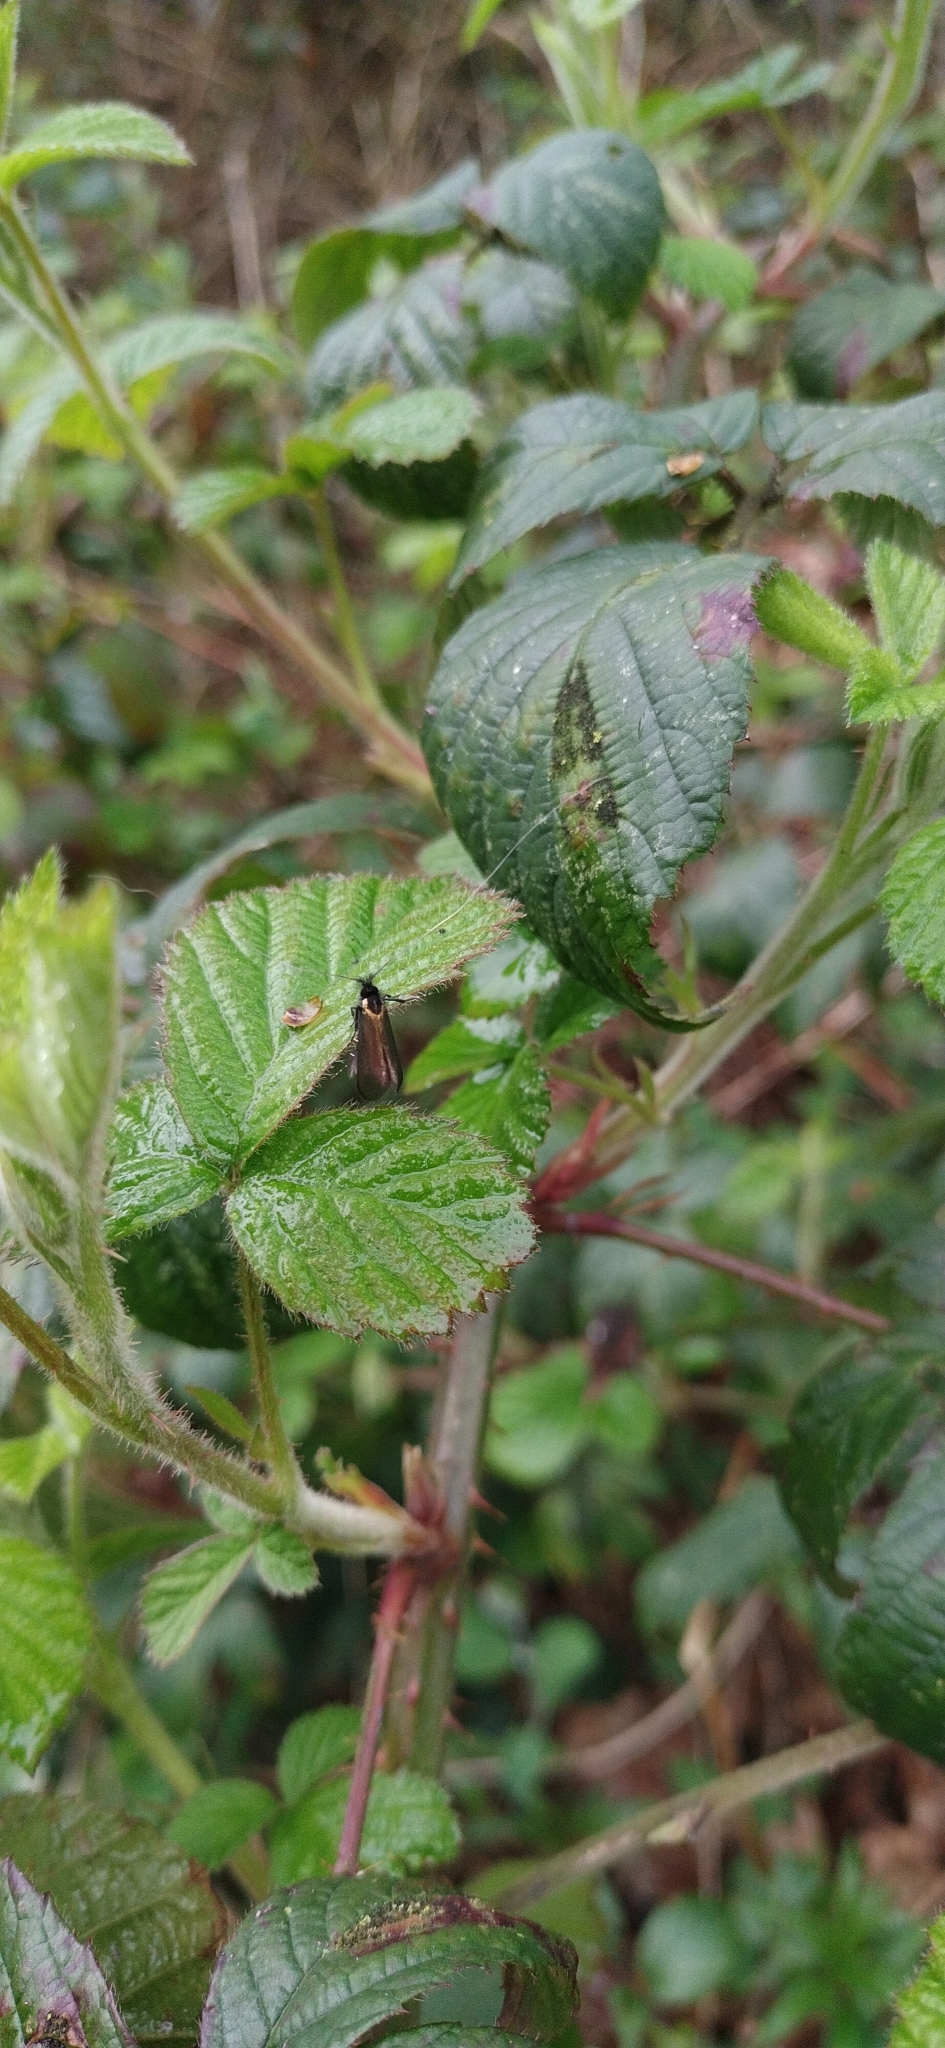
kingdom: Animalia
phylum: Arthropoda
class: Insecta
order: Lepidoptera
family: Adelidae
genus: Adela
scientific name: Adela viridella
